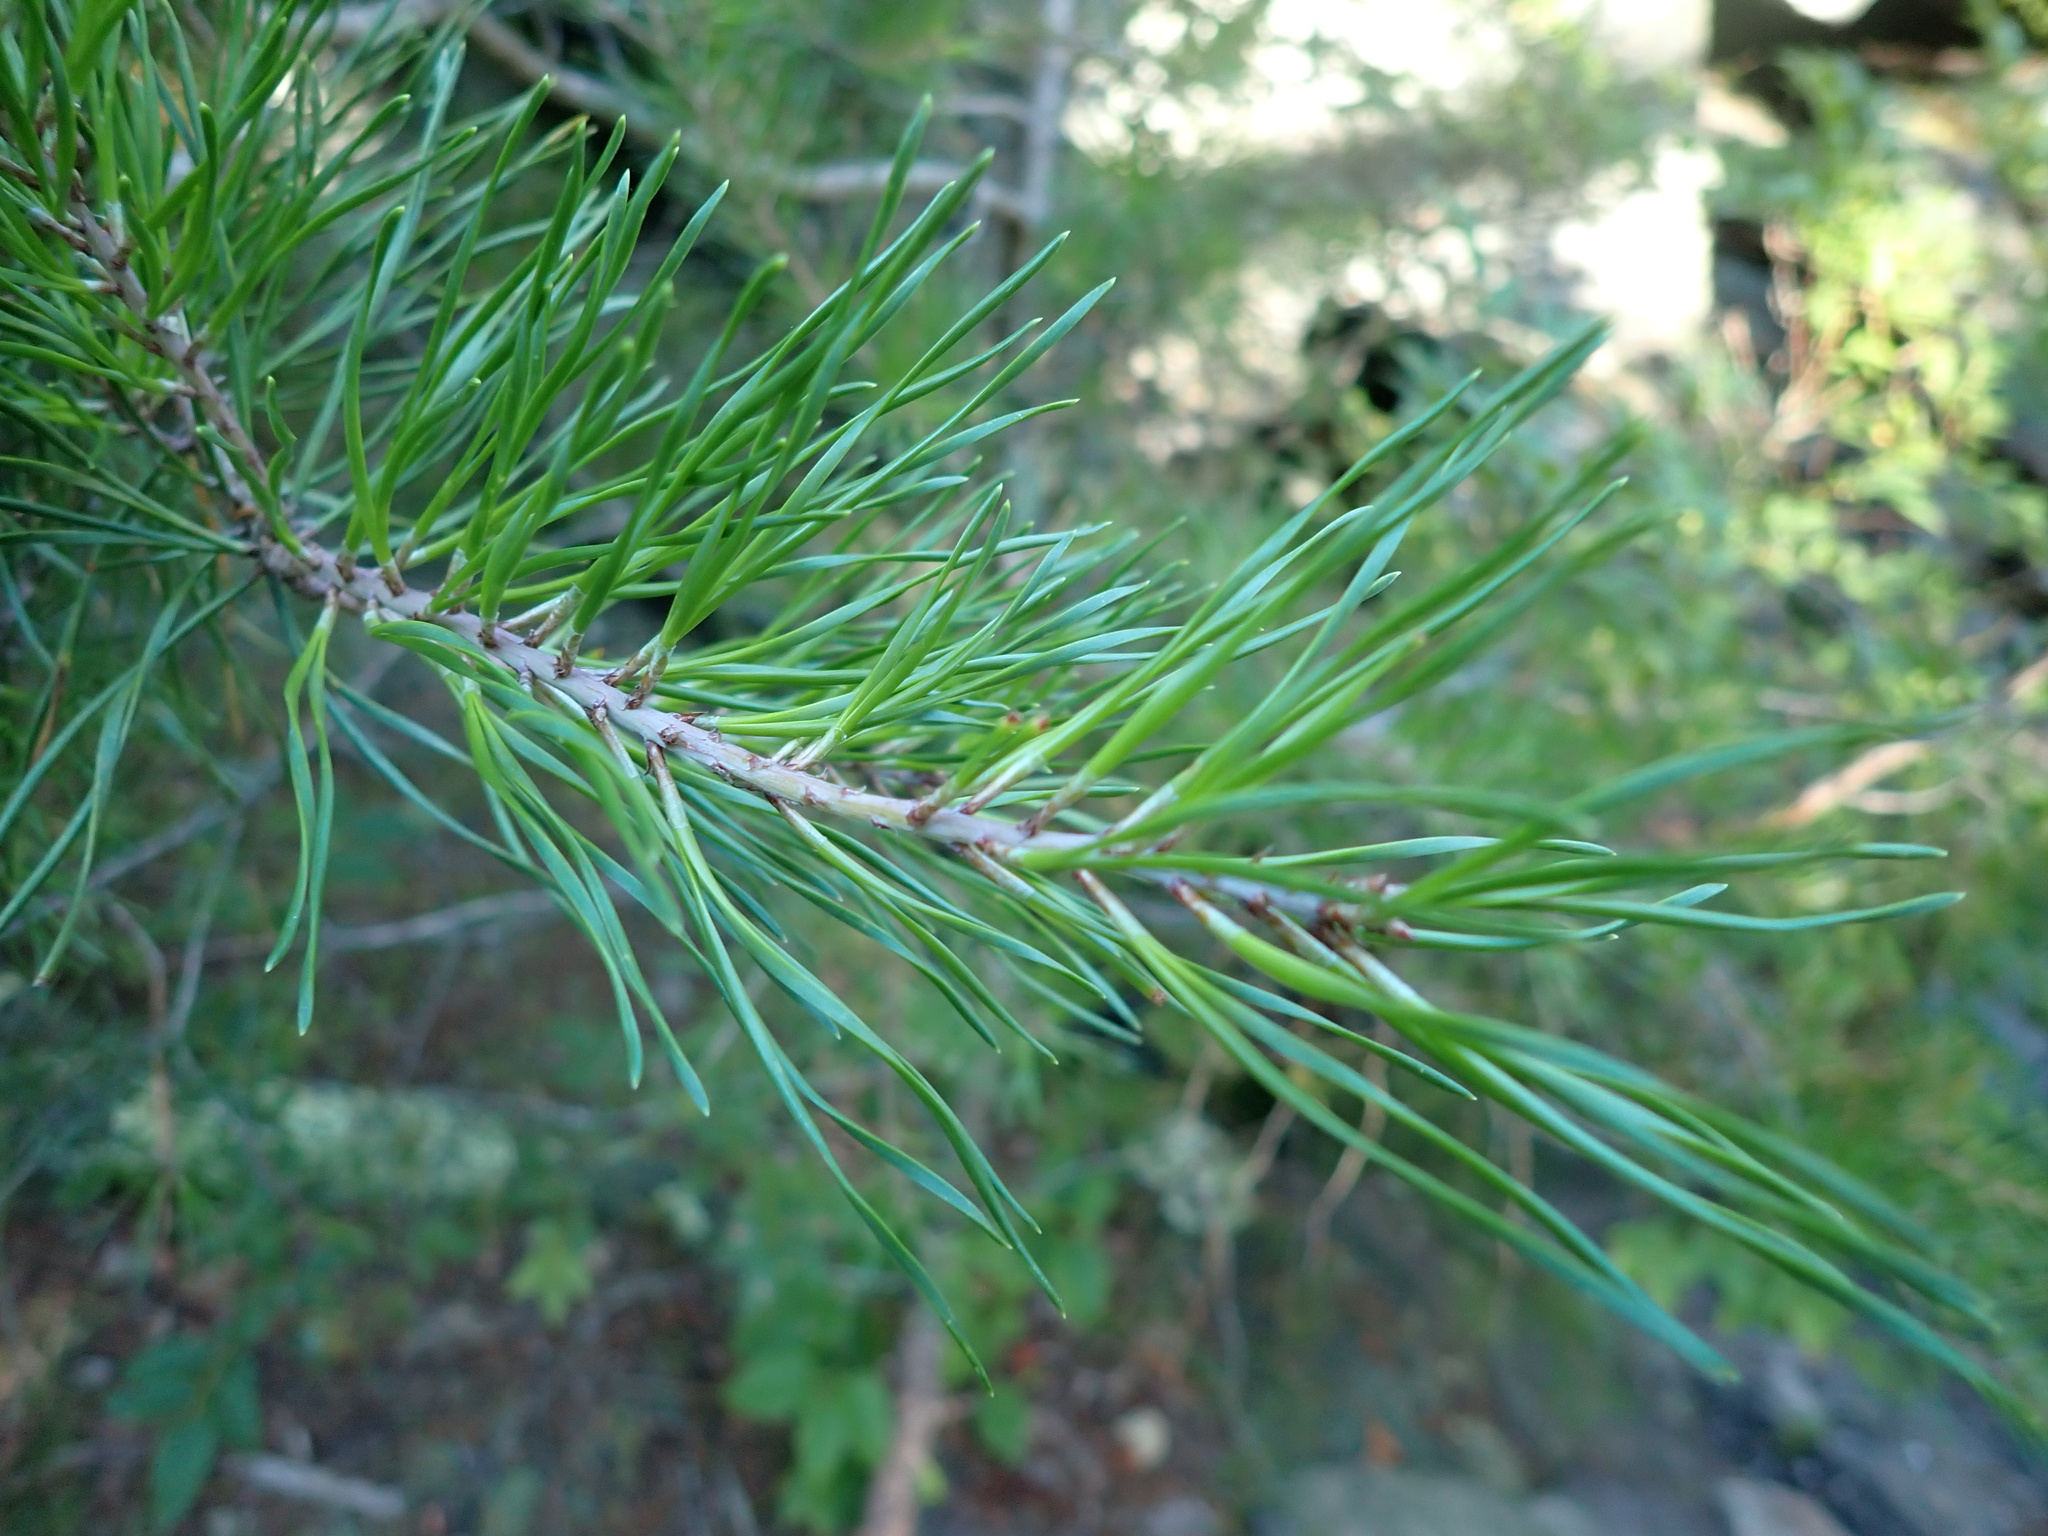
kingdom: Plantae
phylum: Tracheophyta
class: Pinopsida
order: Pinales
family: Pinaceae
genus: Pinus
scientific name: Pinus virginiana
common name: Scrub pine
